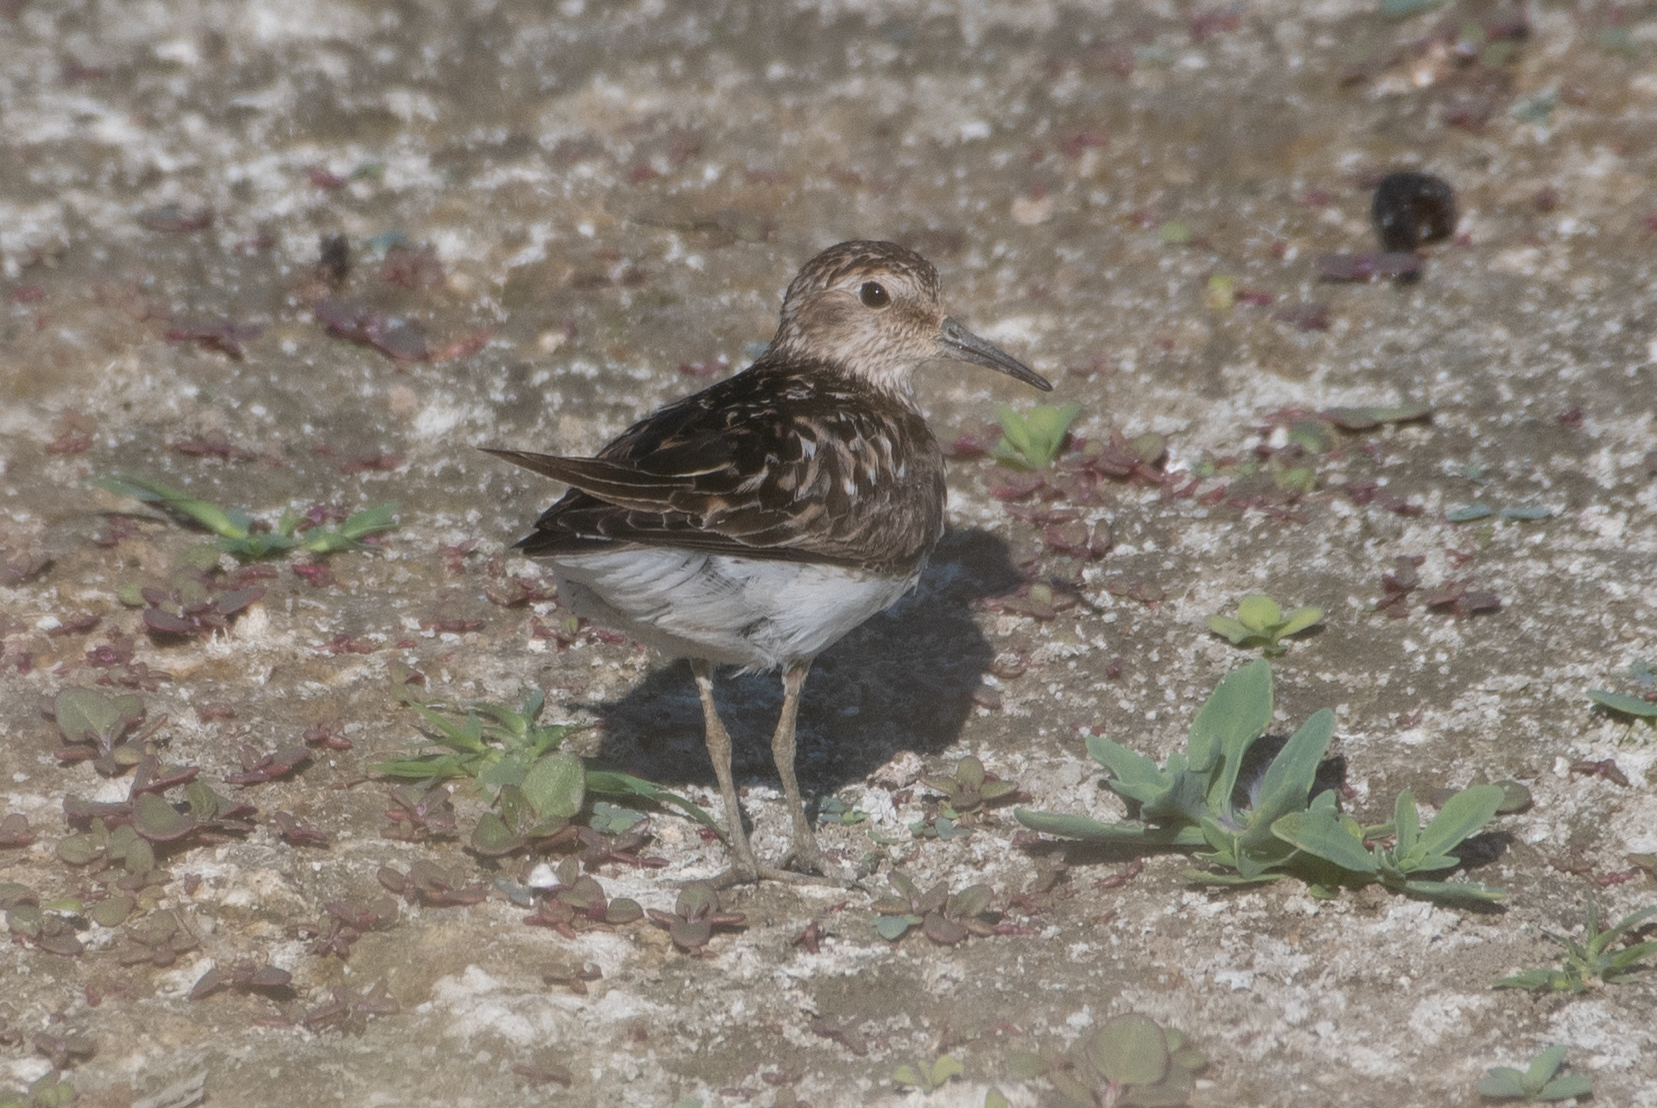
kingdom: Animalia
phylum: Chordata
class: Aves
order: Charadriiformes
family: Scolopacidae
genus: Calidris
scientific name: Calidris minutilla
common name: Least sandpiper
